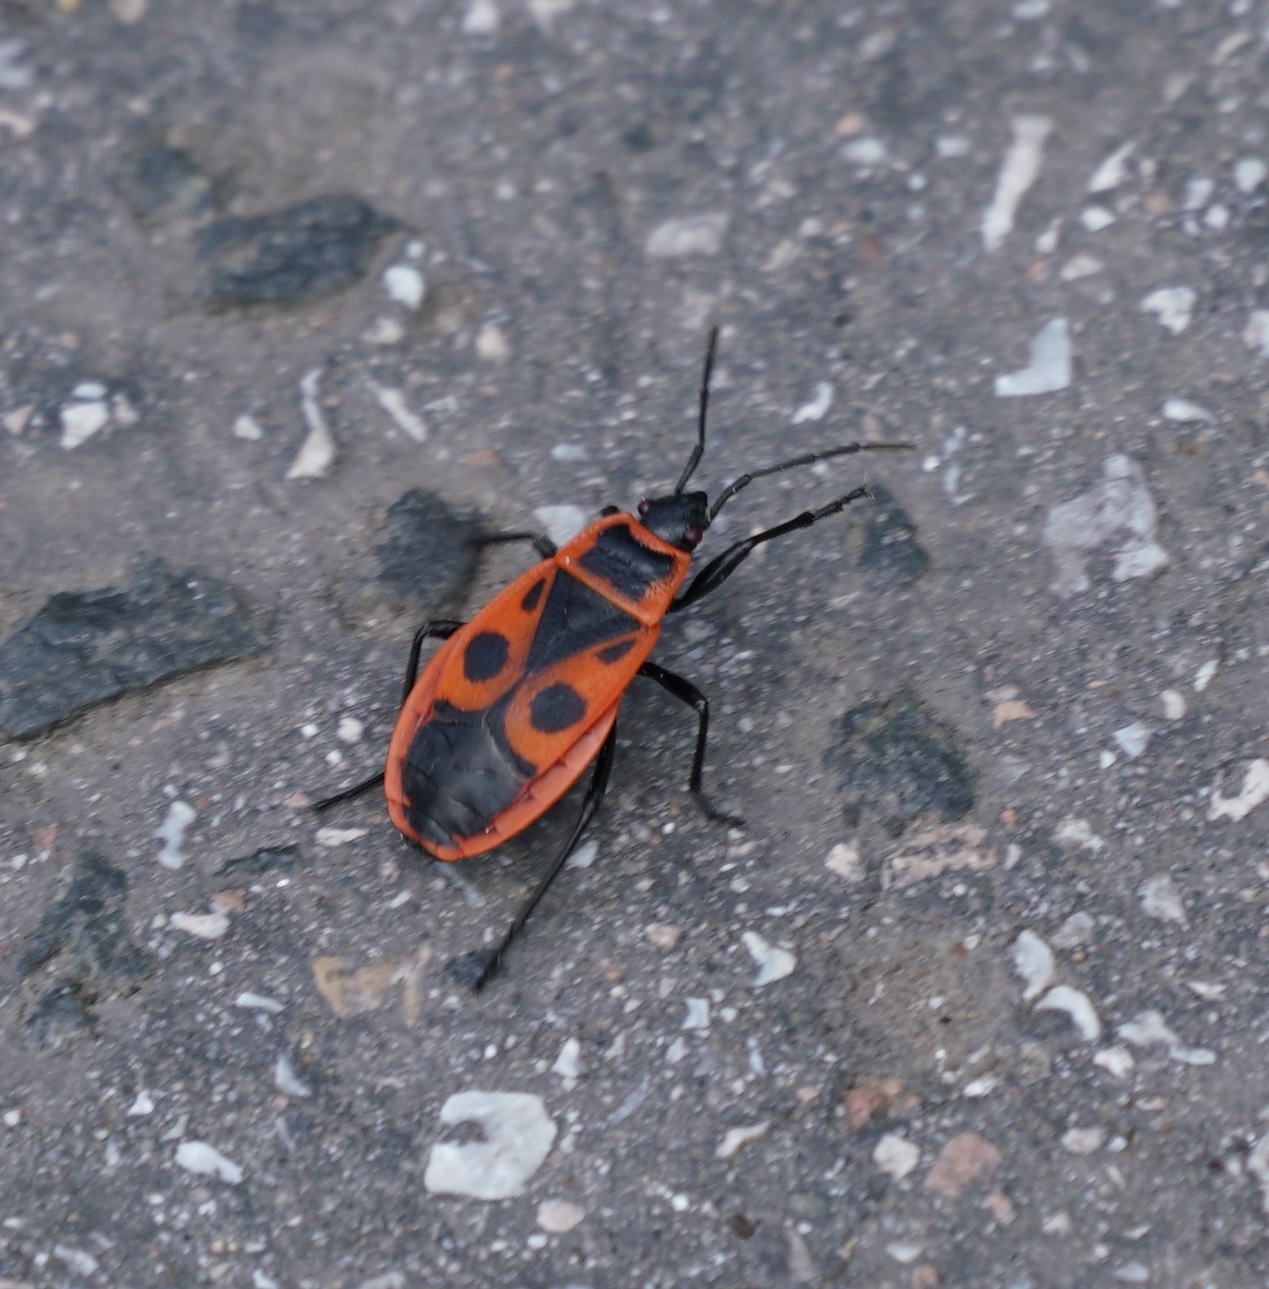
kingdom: Animalia
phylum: Arthropoda
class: Insecta
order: Hemiptera
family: Pyrrhocoridae
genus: Pyrrhocoris
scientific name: Pyrrhocoris apterus
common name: Firebug
